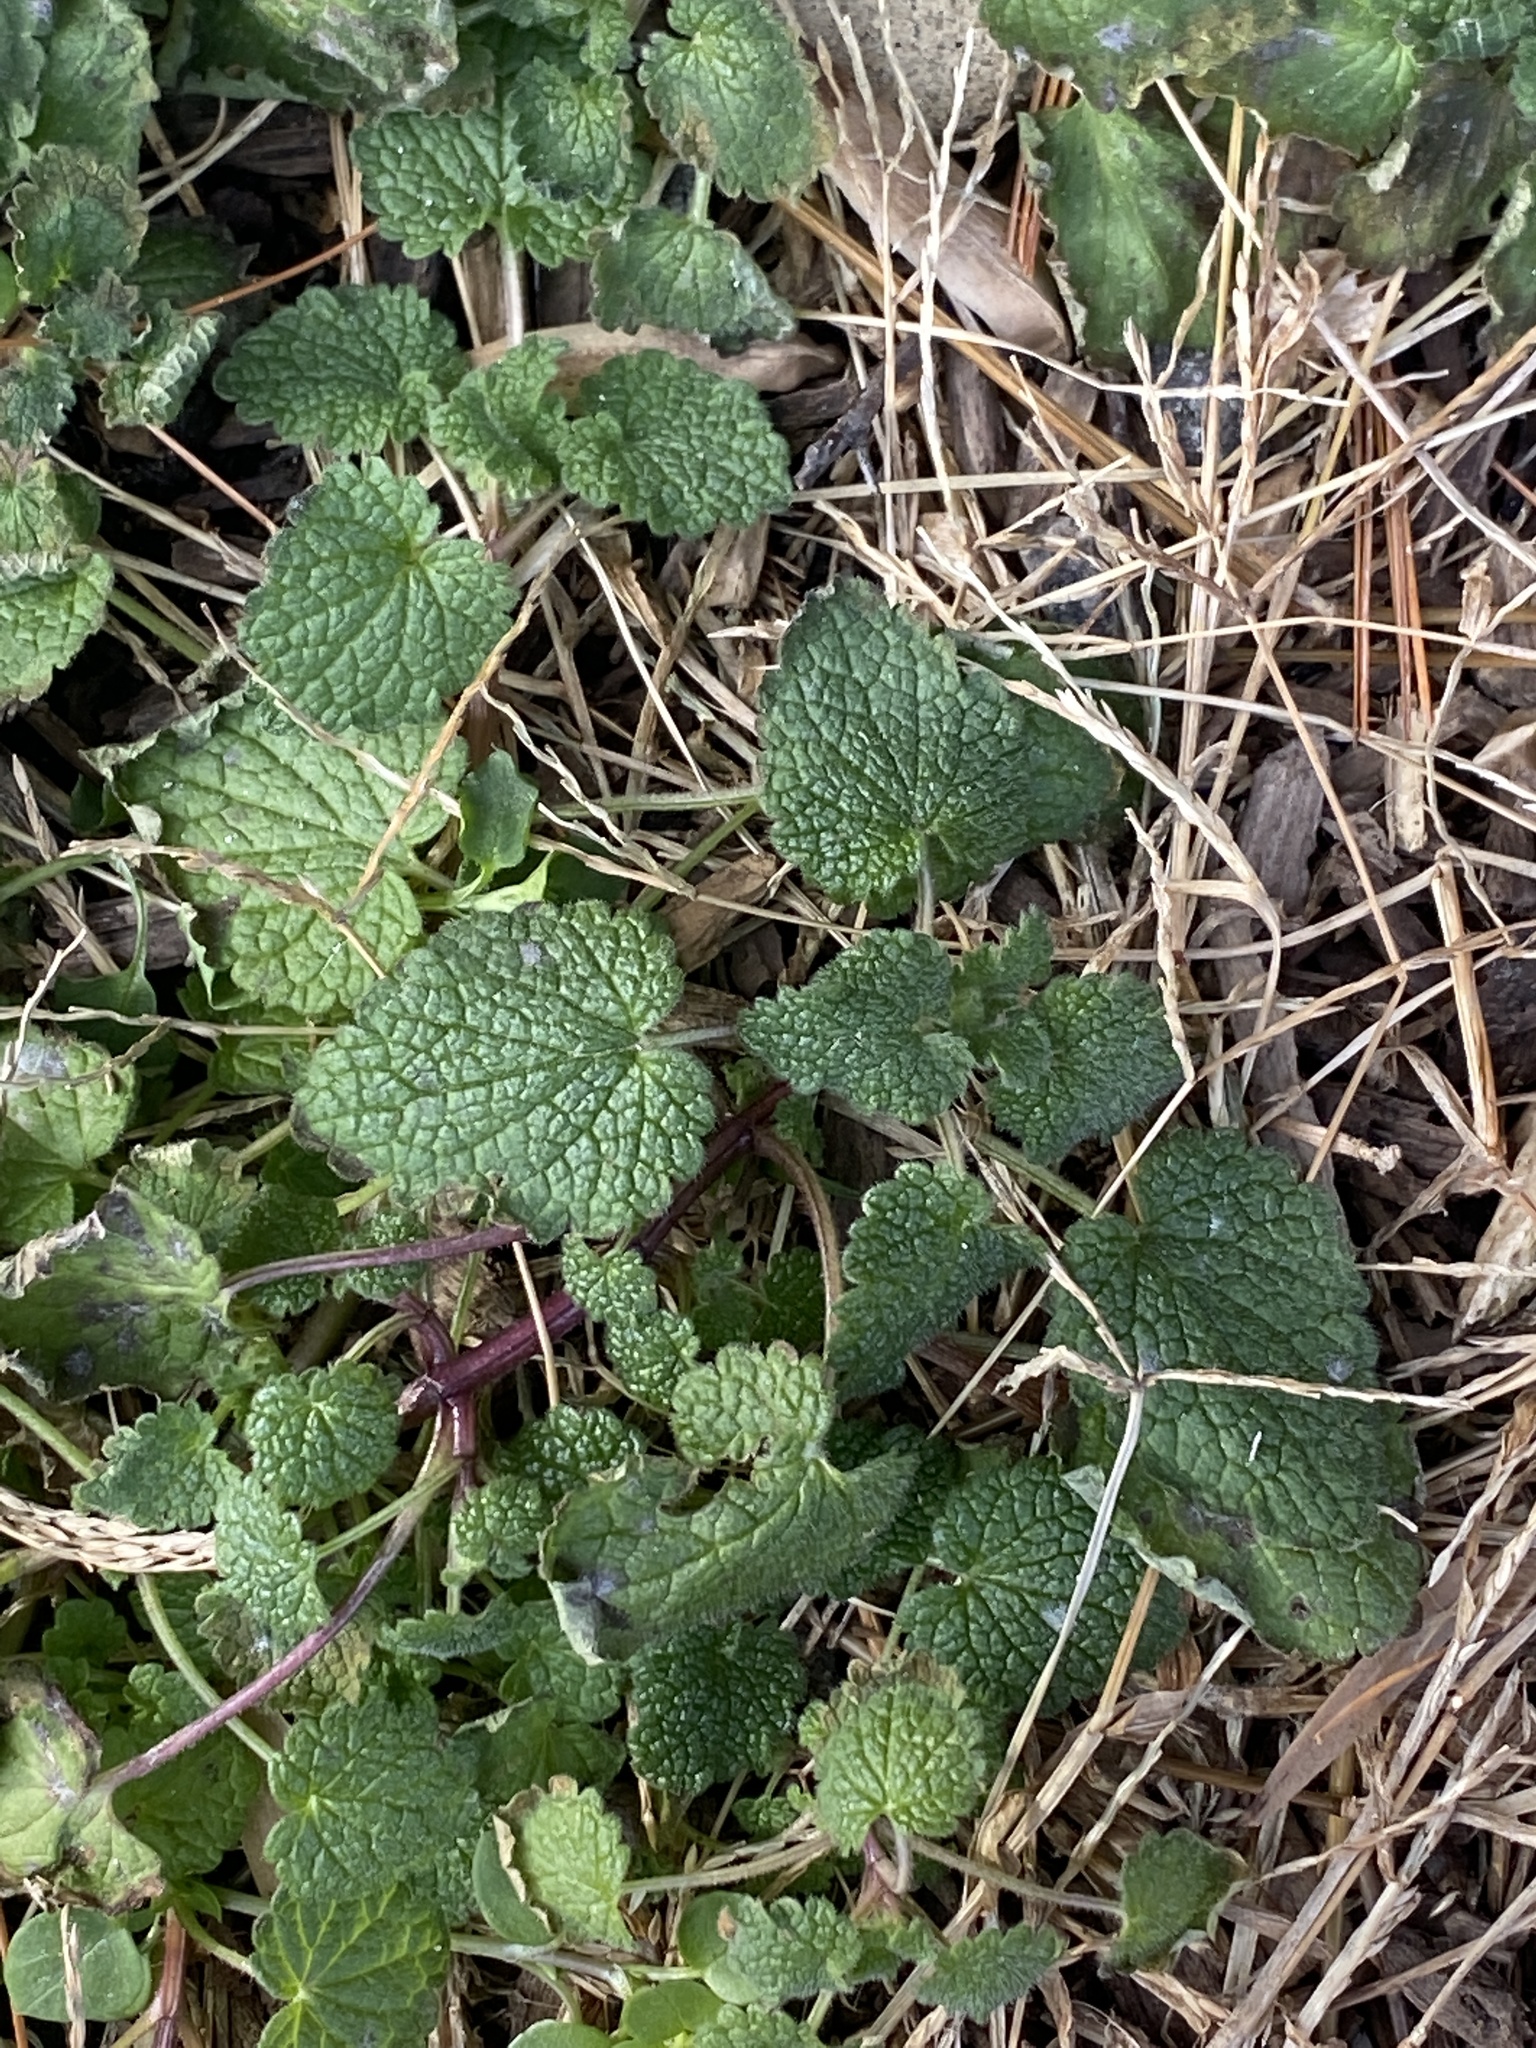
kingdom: Plantae
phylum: Tracheophyta
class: Magnoliopsida
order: Lamiales
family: Lamiaceae
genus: Lamium
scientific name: Lamium purpureum
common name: Red dead-nettle
